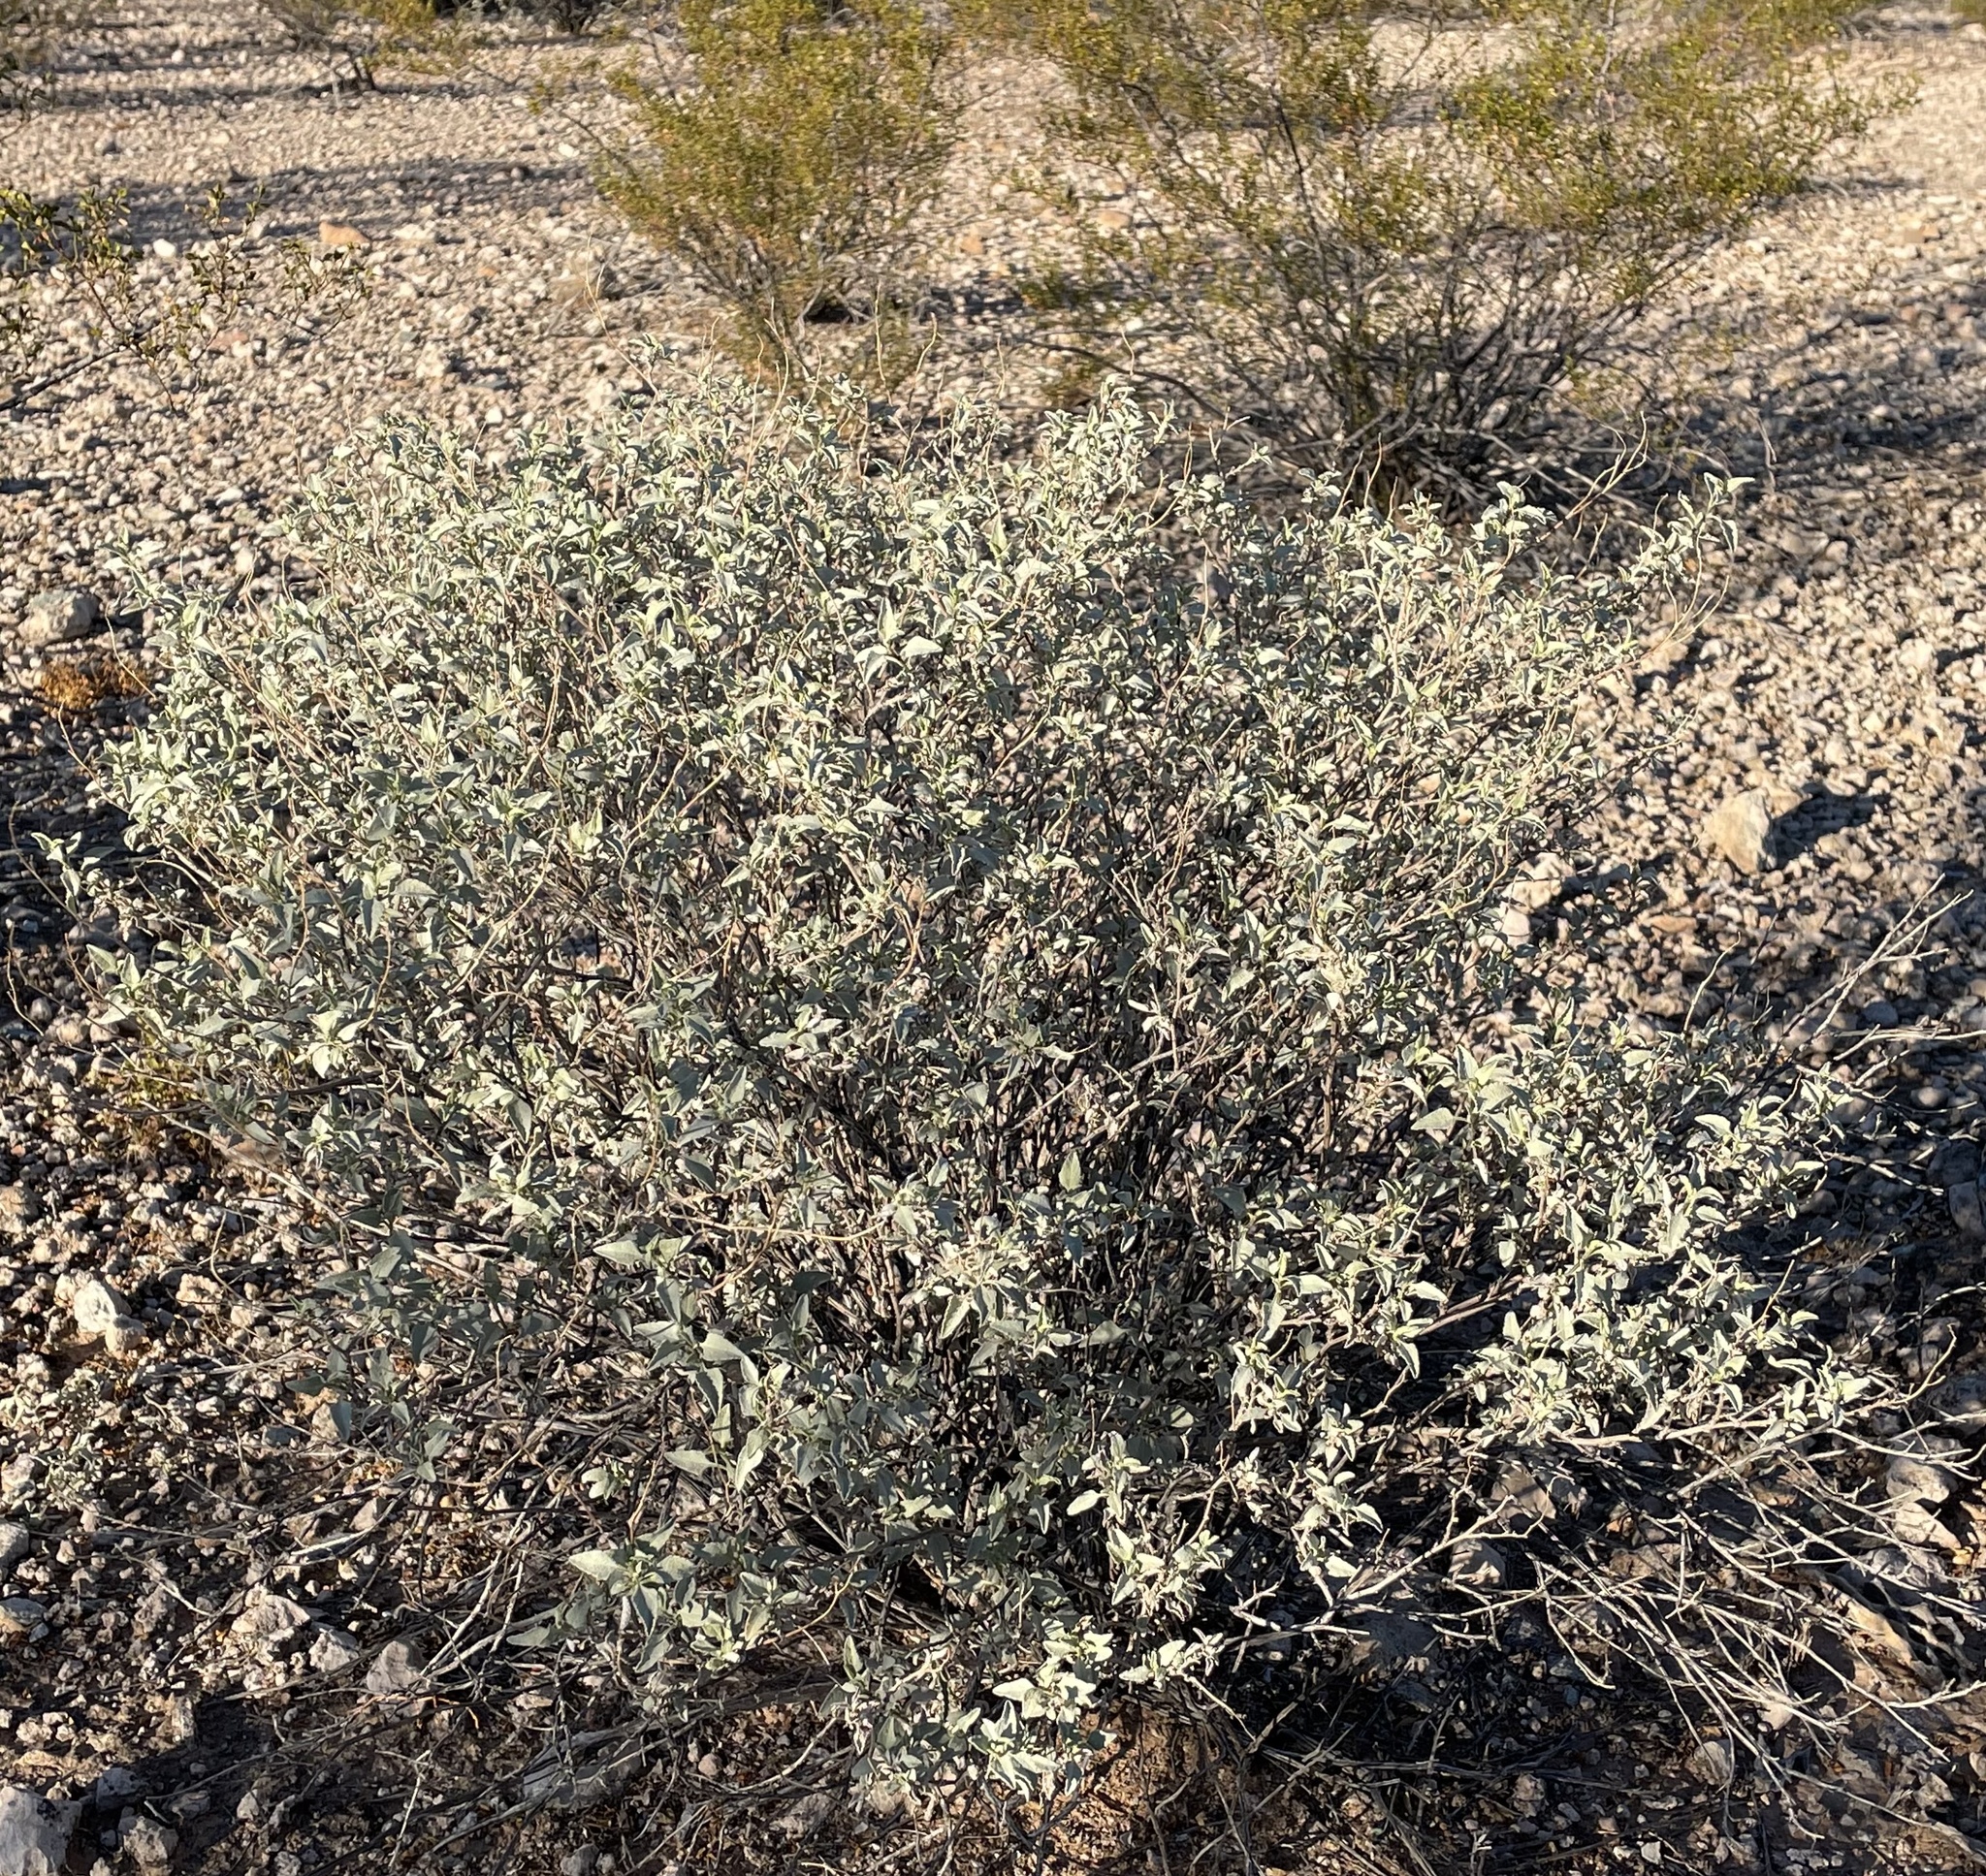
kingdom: Plantae
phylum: Tracheophyta
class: Magnoliopsida
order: Asterales
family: Asteraceae
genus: Ambrosia
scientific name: Ambrosia deltoidea
